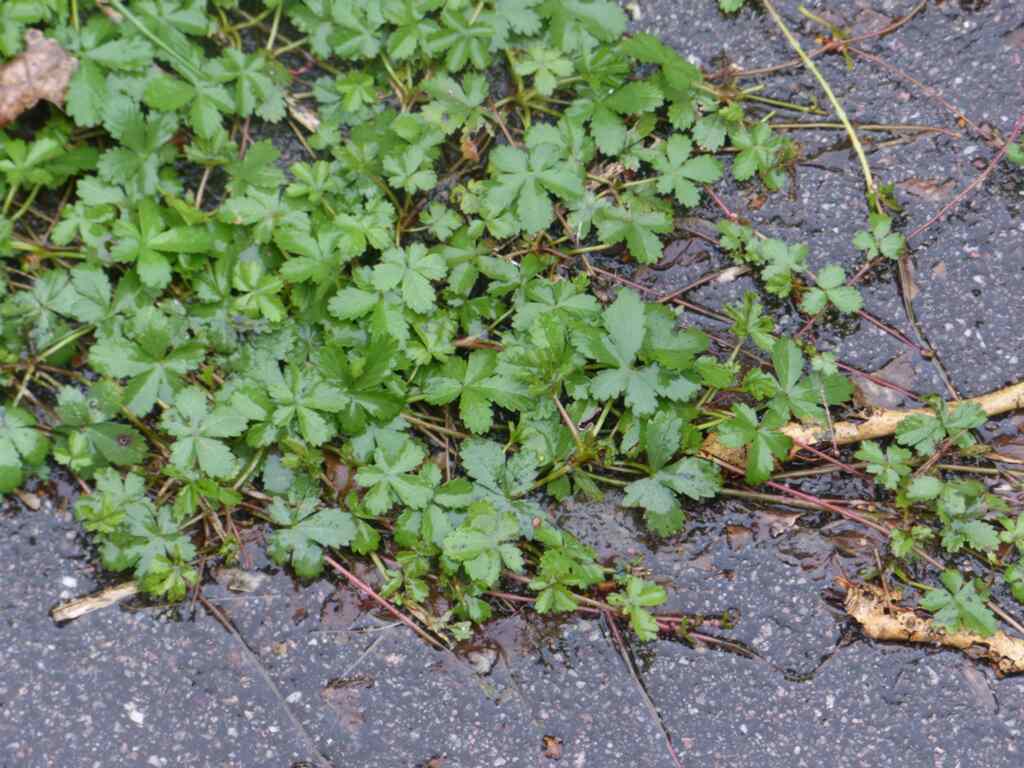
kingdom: Plantae
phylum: Tracheophyta
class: Magnoliopsida
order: Rosales
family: Rosaceae
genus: Potentilla
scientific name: Potentilla reptans
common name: Creeping cinquefoil
